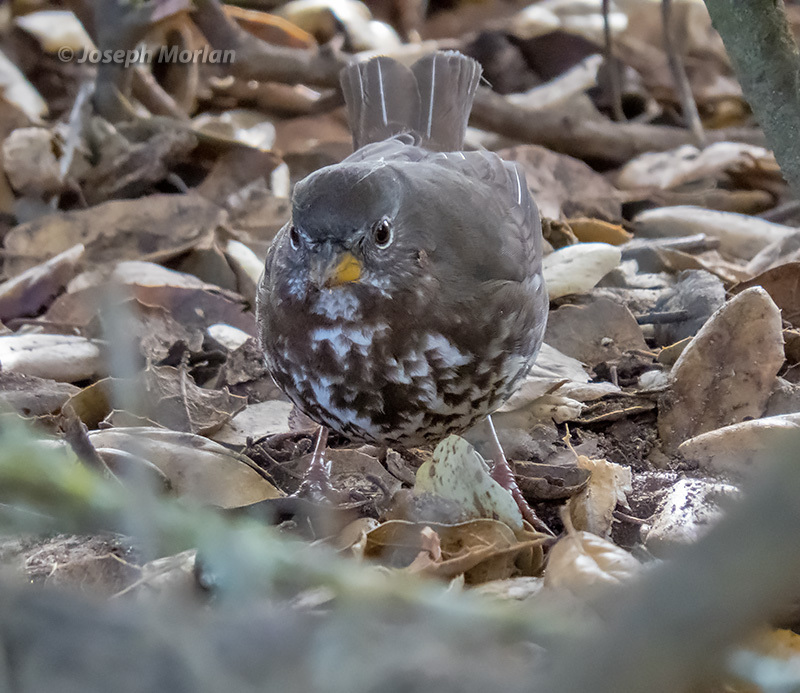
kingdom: Animalia
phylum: Chordata
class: Aves
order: Passeriformes
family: Passerellidae
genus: Passerella
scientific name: Passerella iliaca
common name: Fox sparrow
